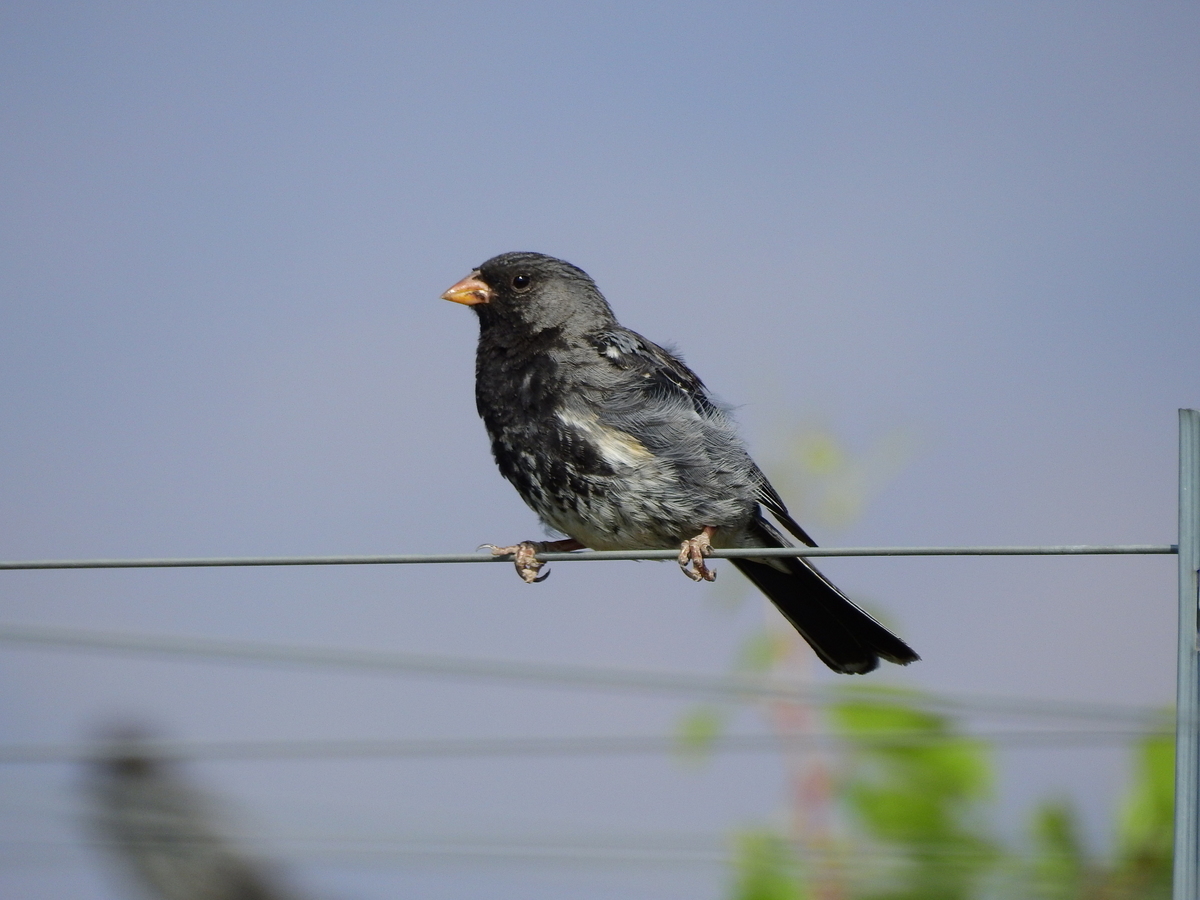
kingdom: Animalia
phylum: Chordata
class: Aves
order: Passeriformes
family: Thraupidae
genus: Rhopospina
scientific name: Rhopospina fruticeti
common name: Mourning sierra finch
